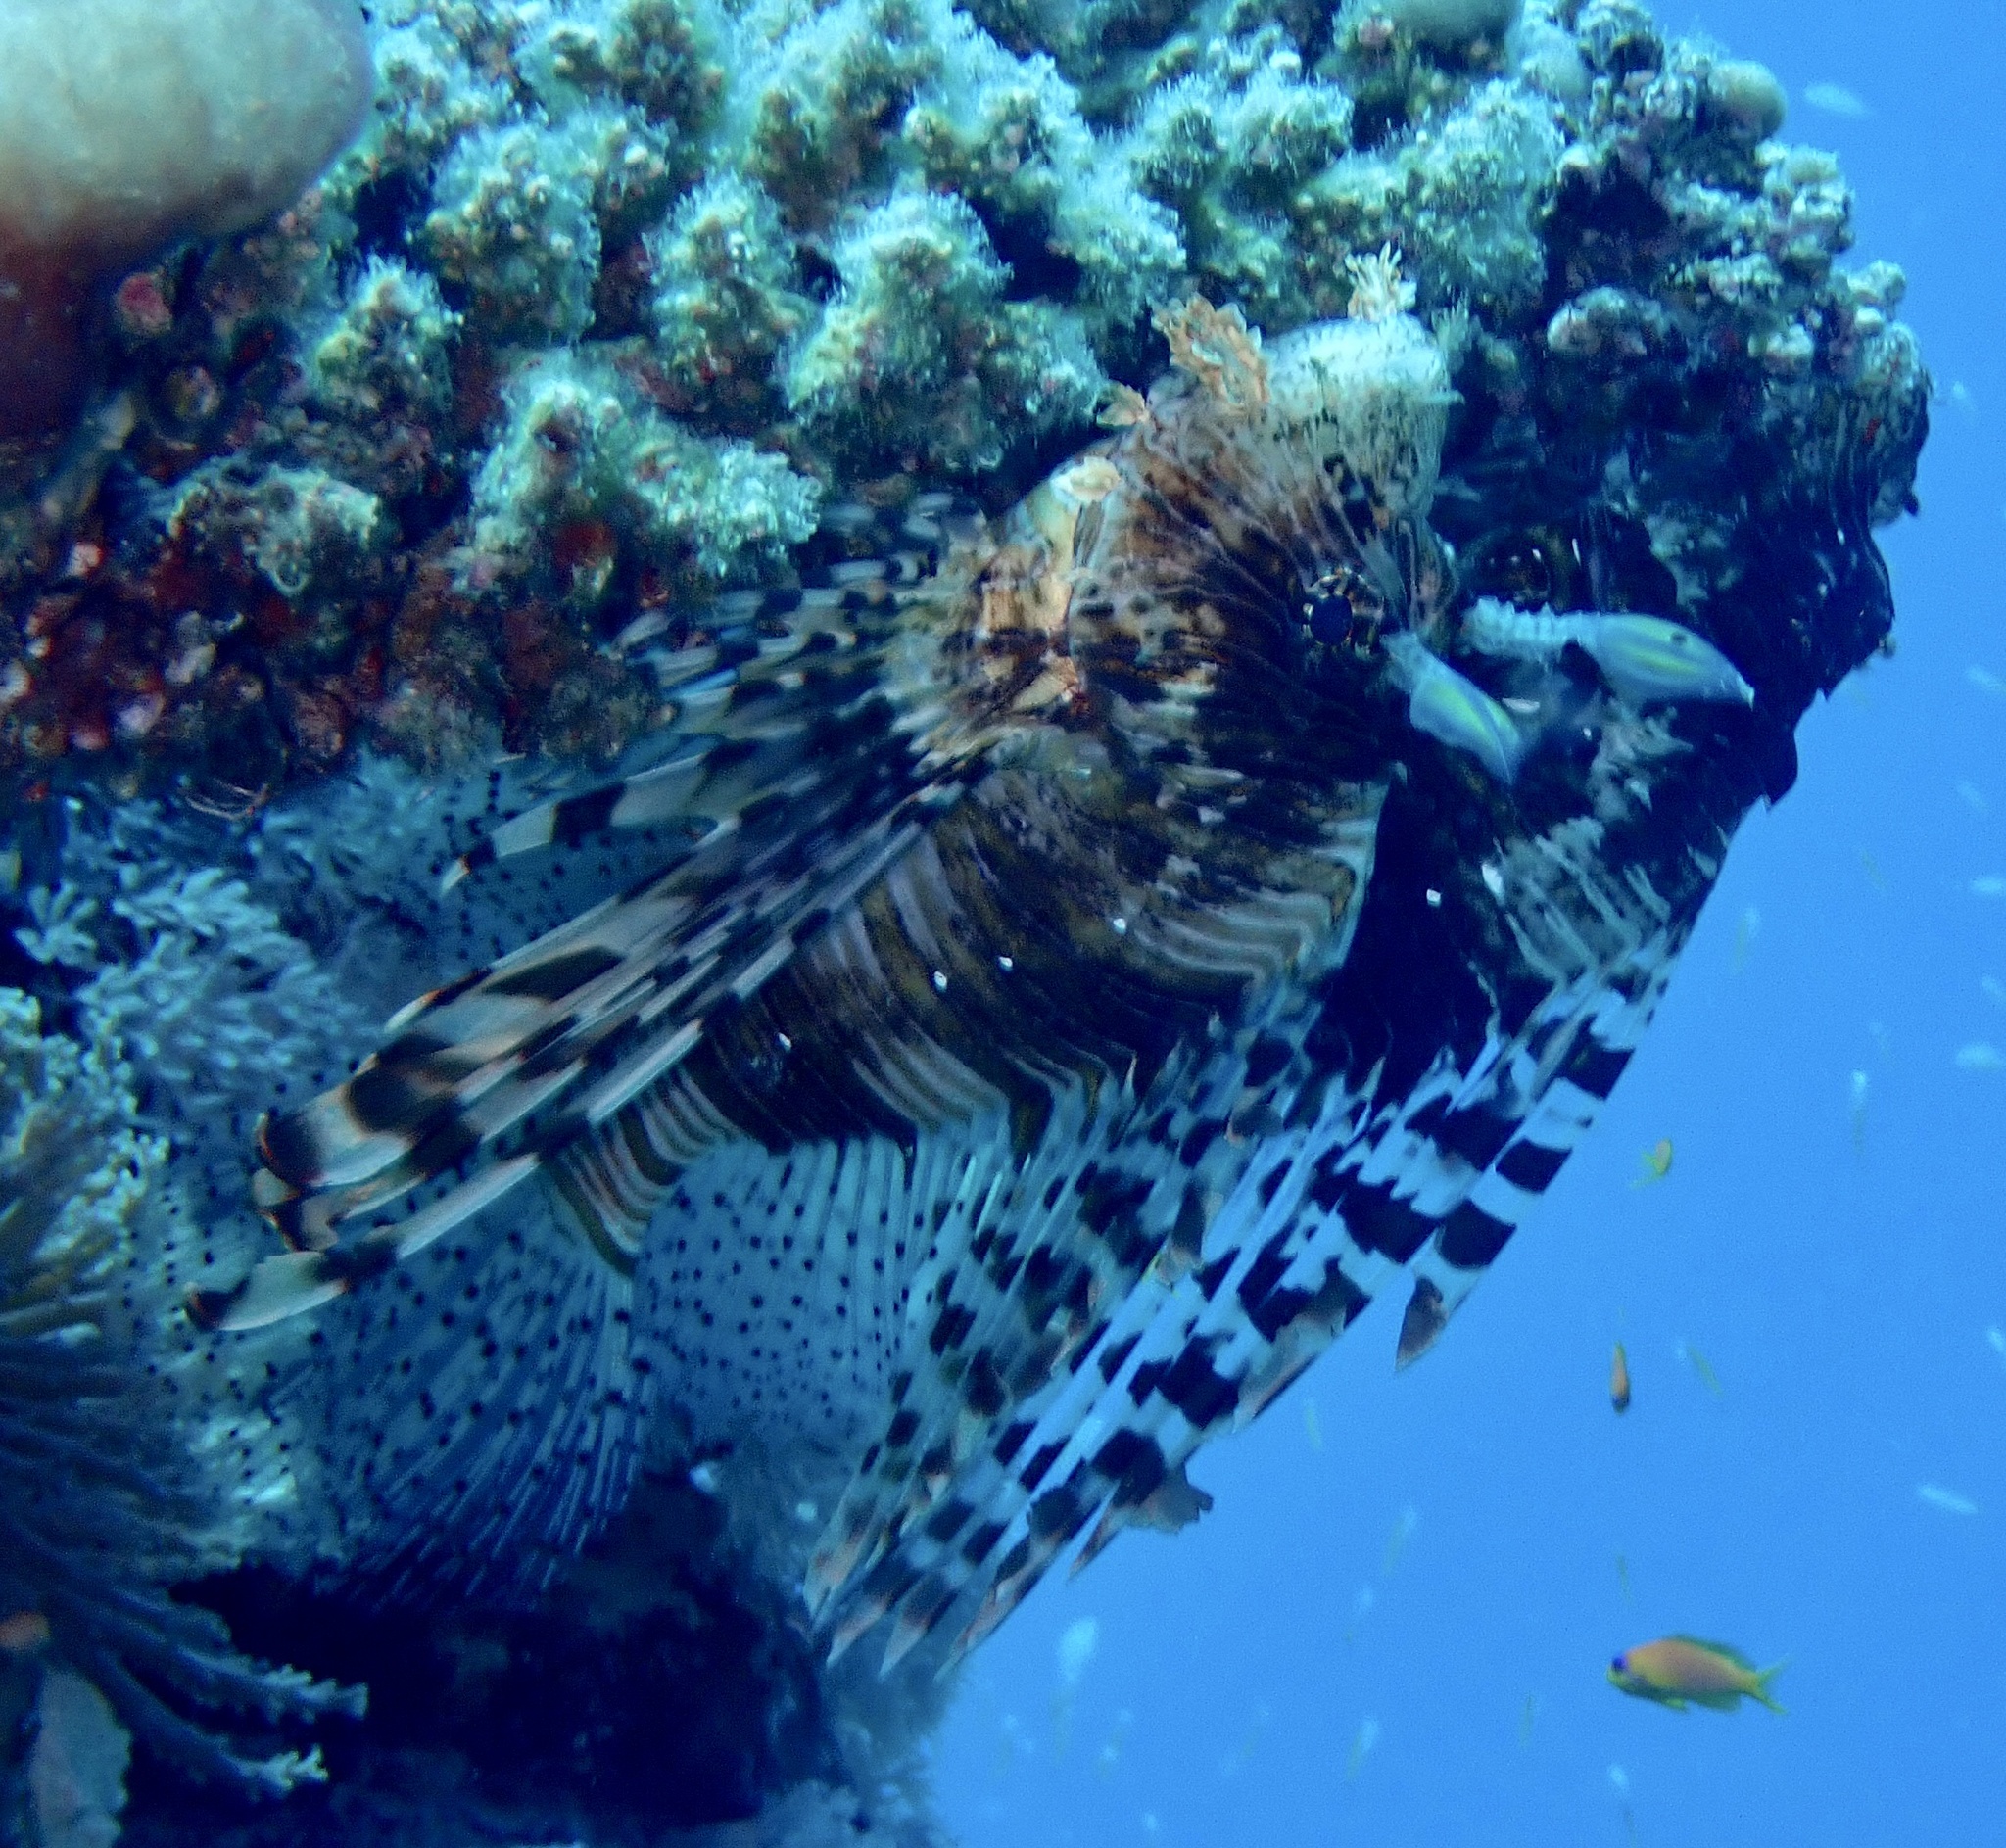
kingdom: Animalia
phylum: Chordata
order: Scorpaeniformes
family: Scorpaenidae
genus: Pterois
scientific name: Pterois miles
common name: Devil firefish
